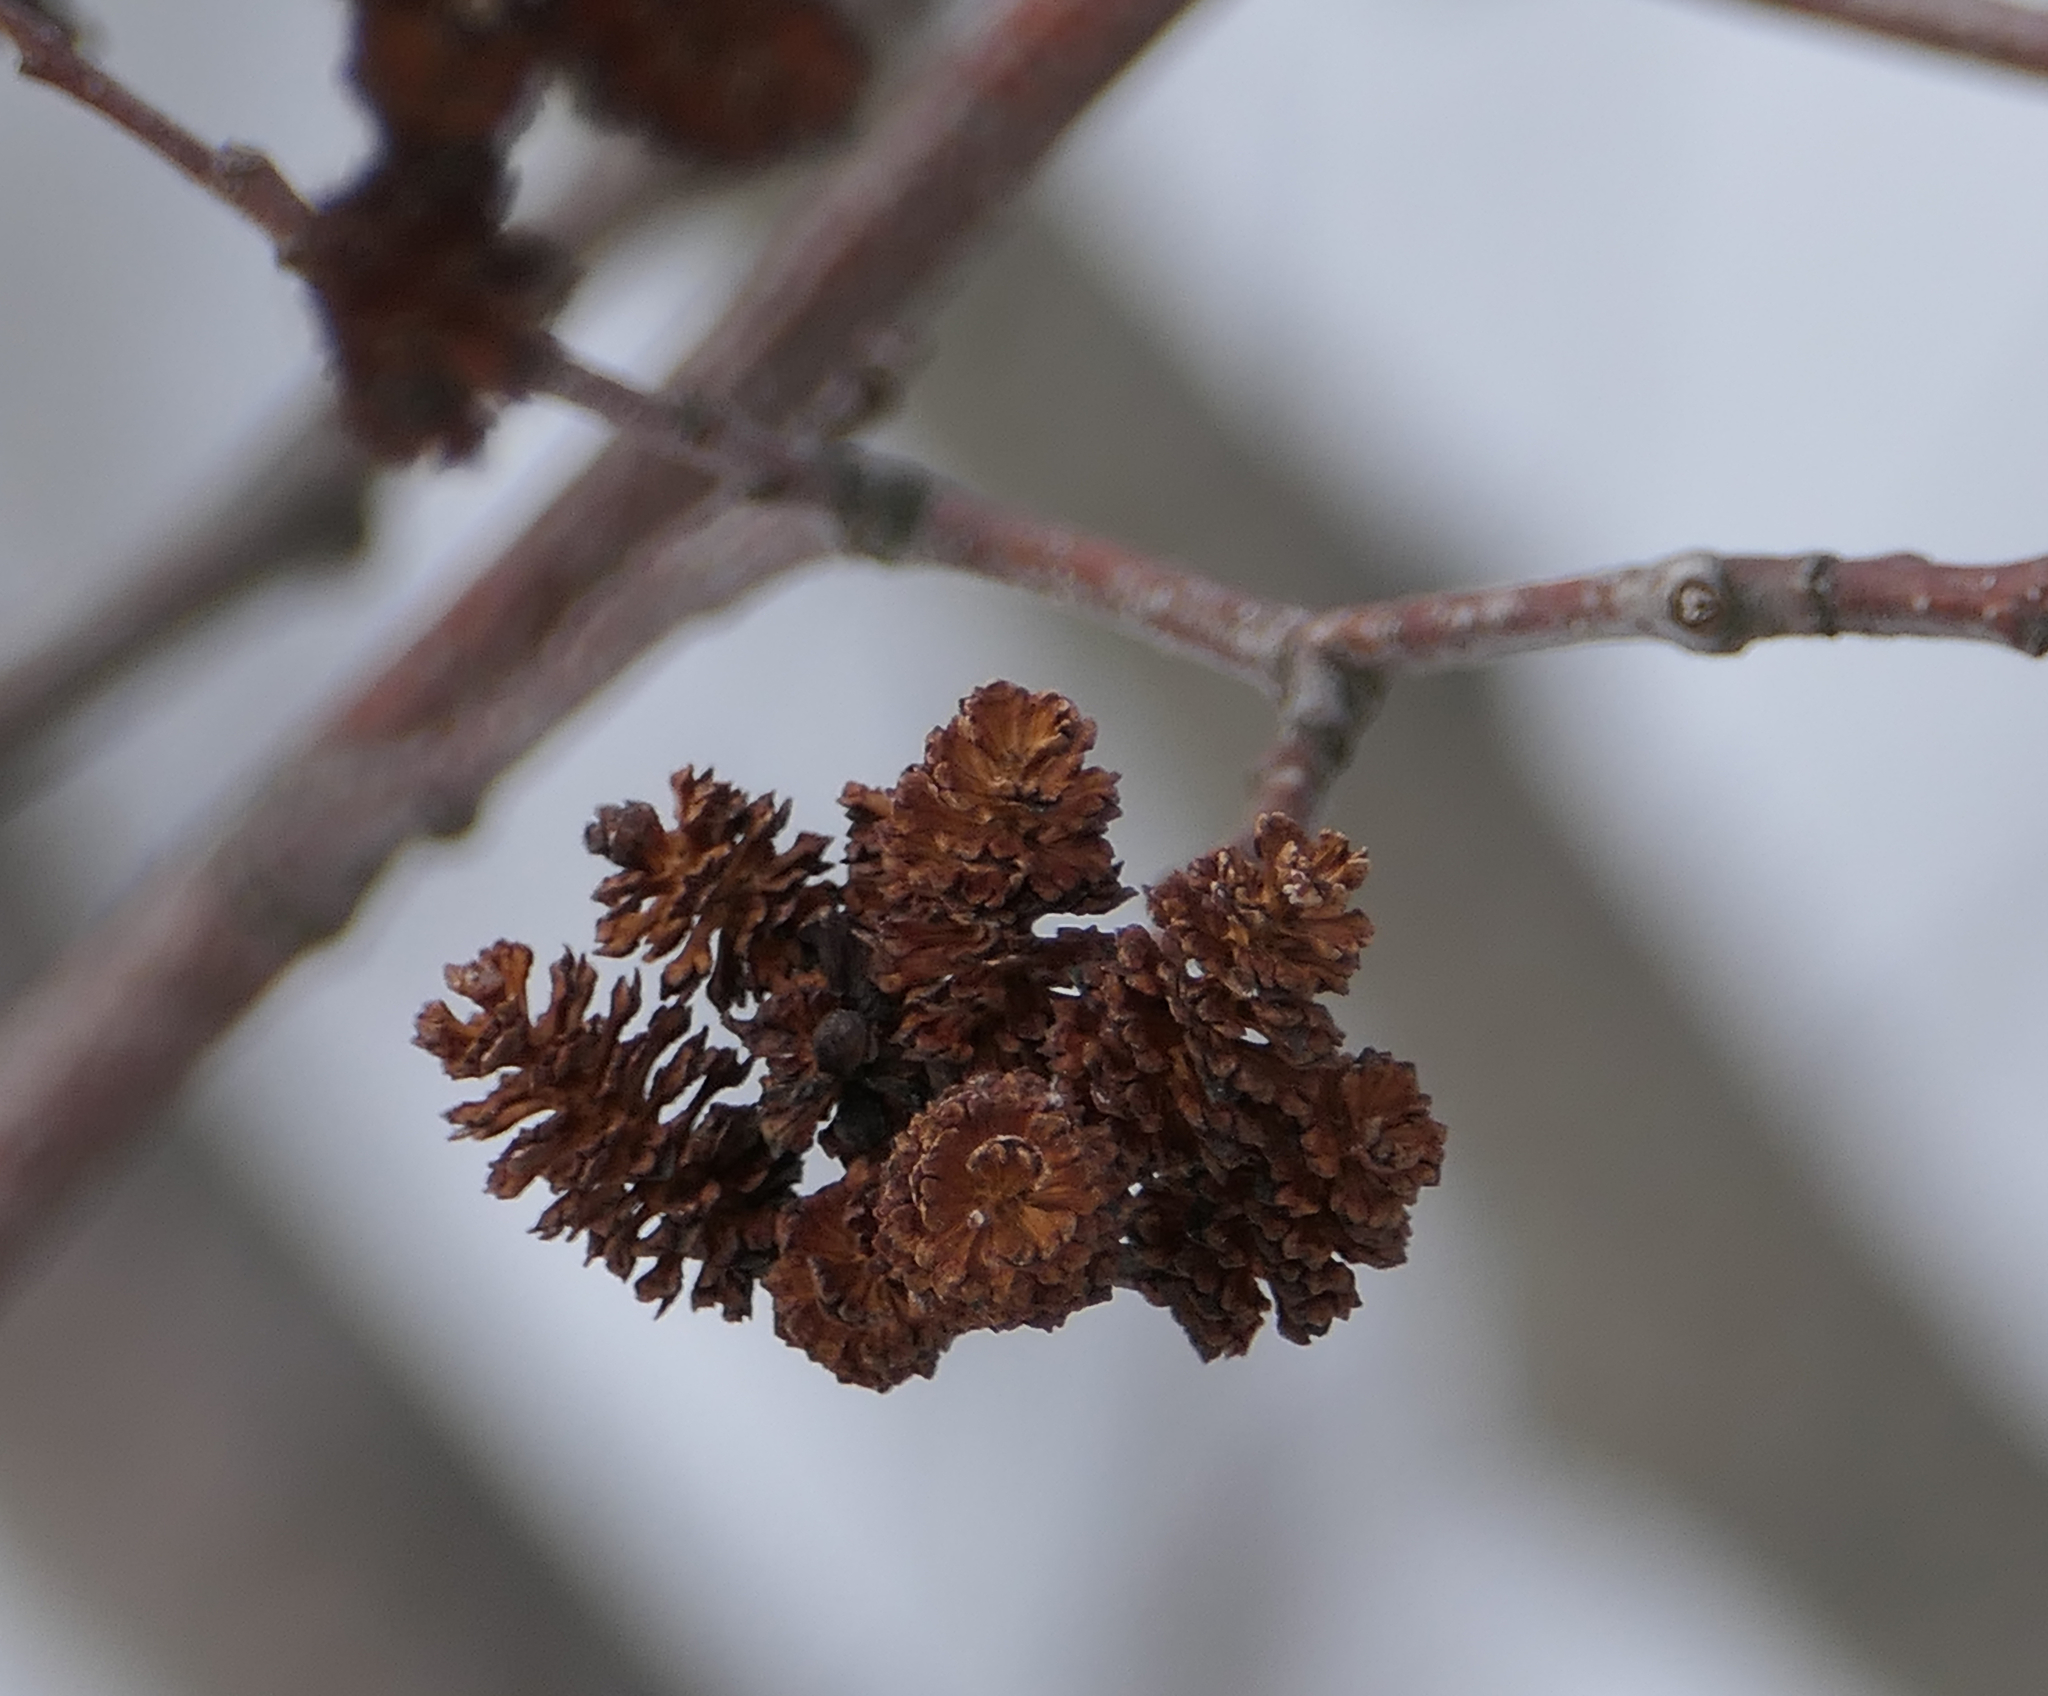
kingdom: Plantae
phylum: Tracheophyta
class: Magnoliopsida
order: Fagales
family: Betulaceae
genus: Alnus
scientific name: Alnus incana
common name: Grey alder
